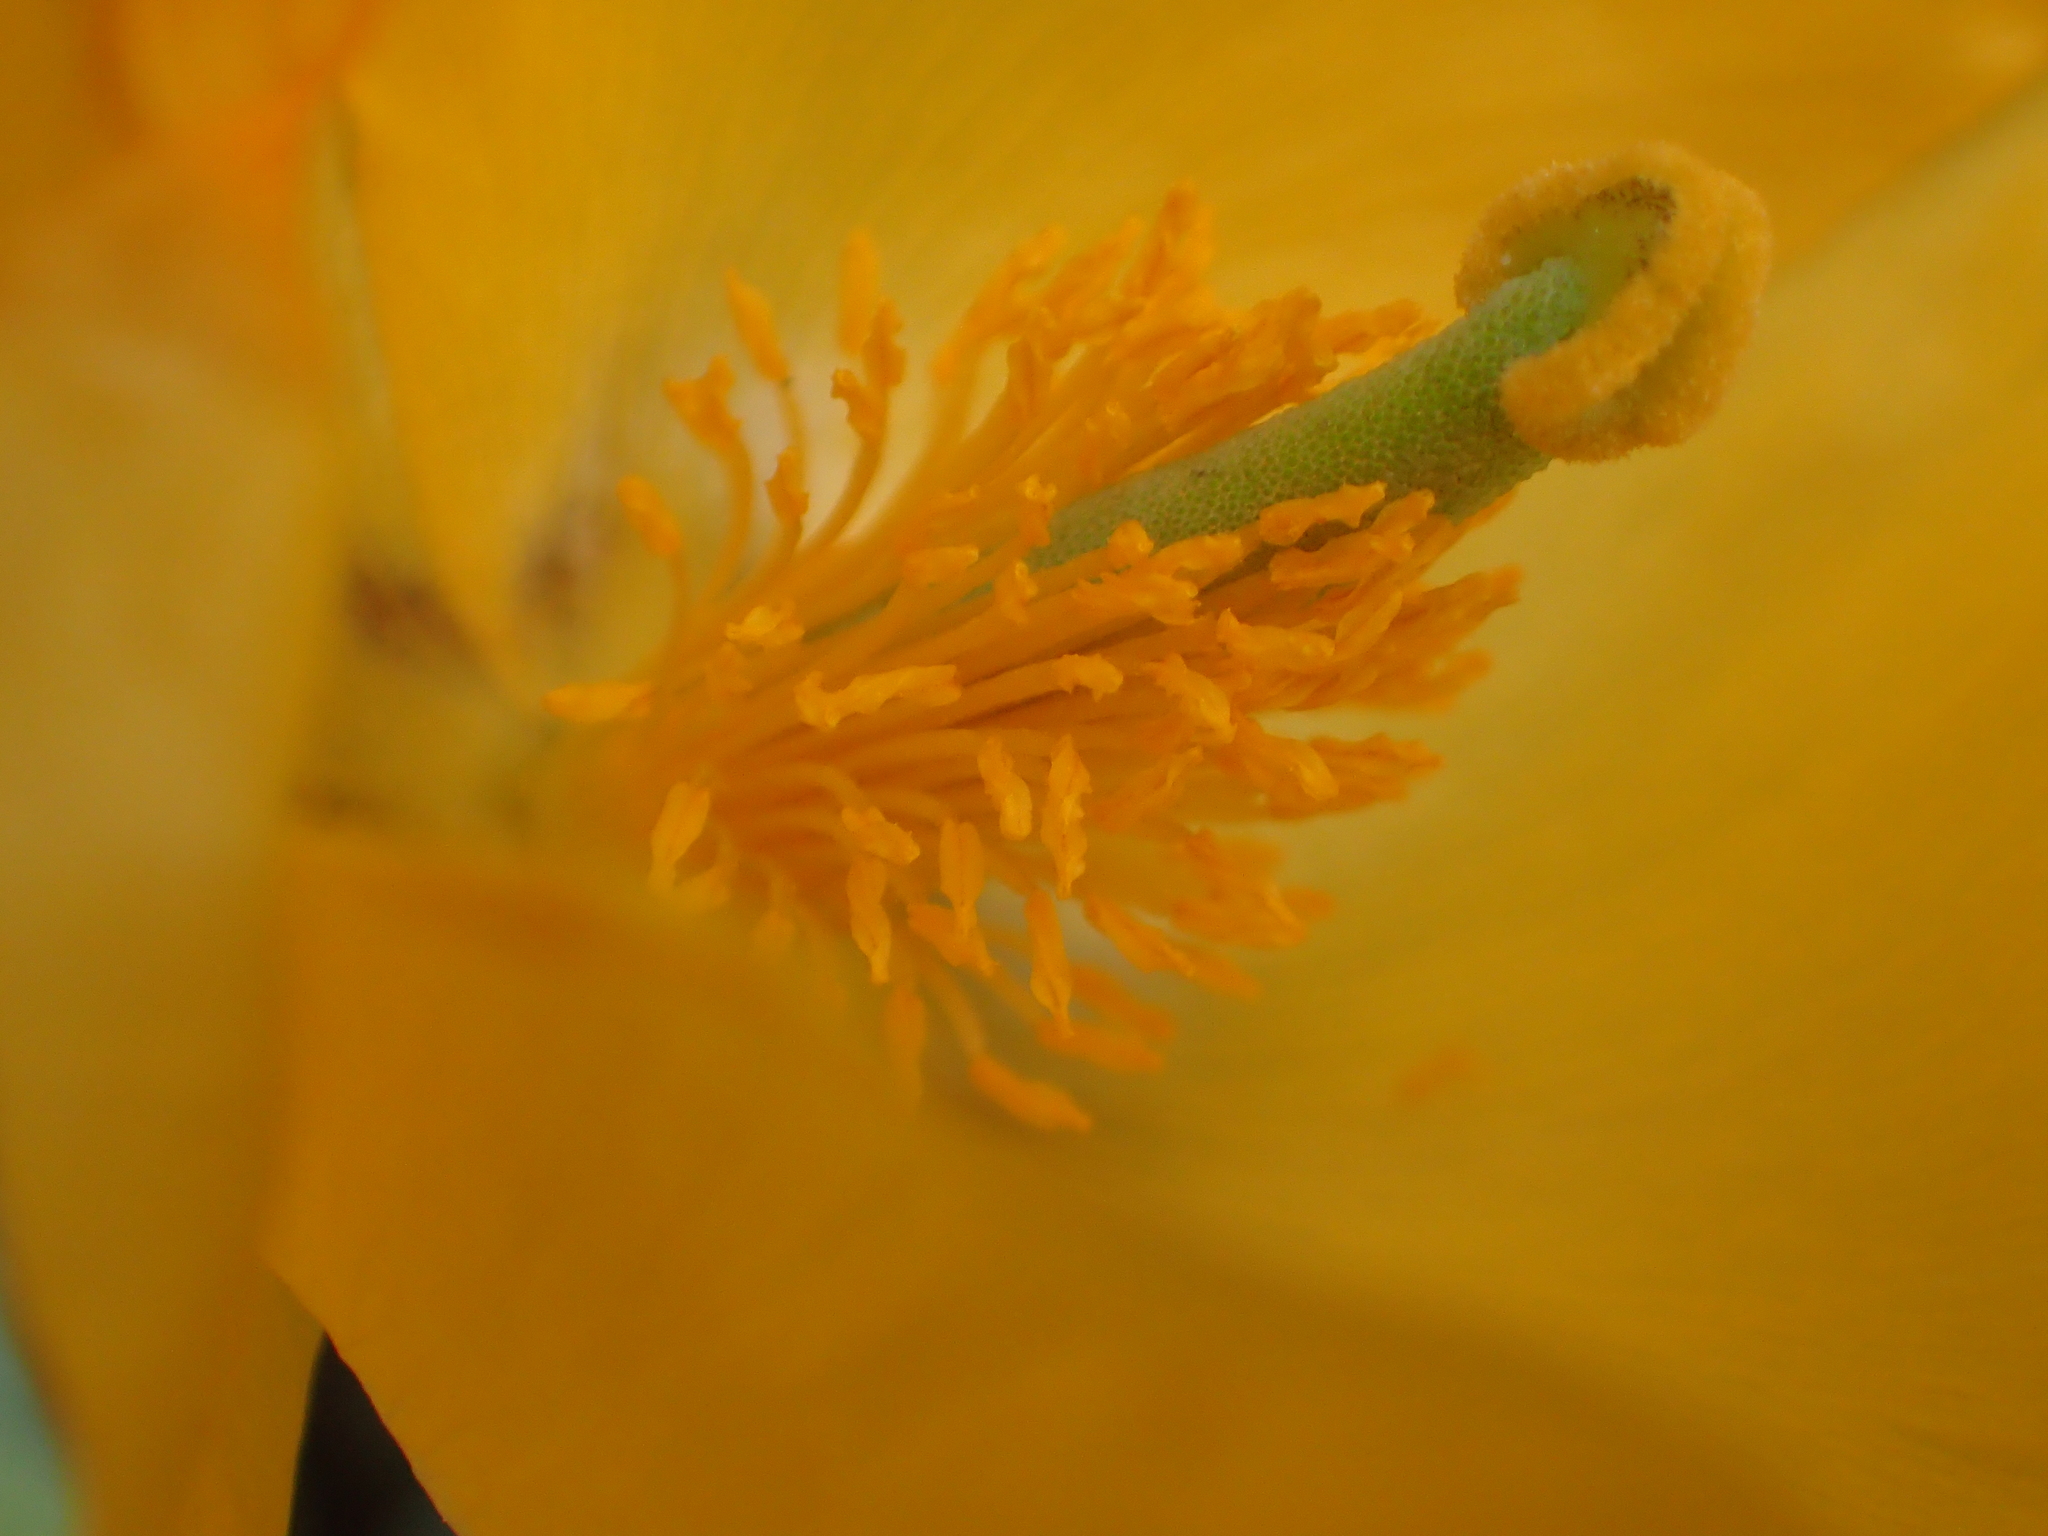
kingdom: Plantae
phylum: Tracheophyta
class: Magnoliopsida
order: Ranunculales
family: Papaveraceae
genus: Glaucium
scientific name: Glaucium flavum
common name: Yellow horned-poppy
